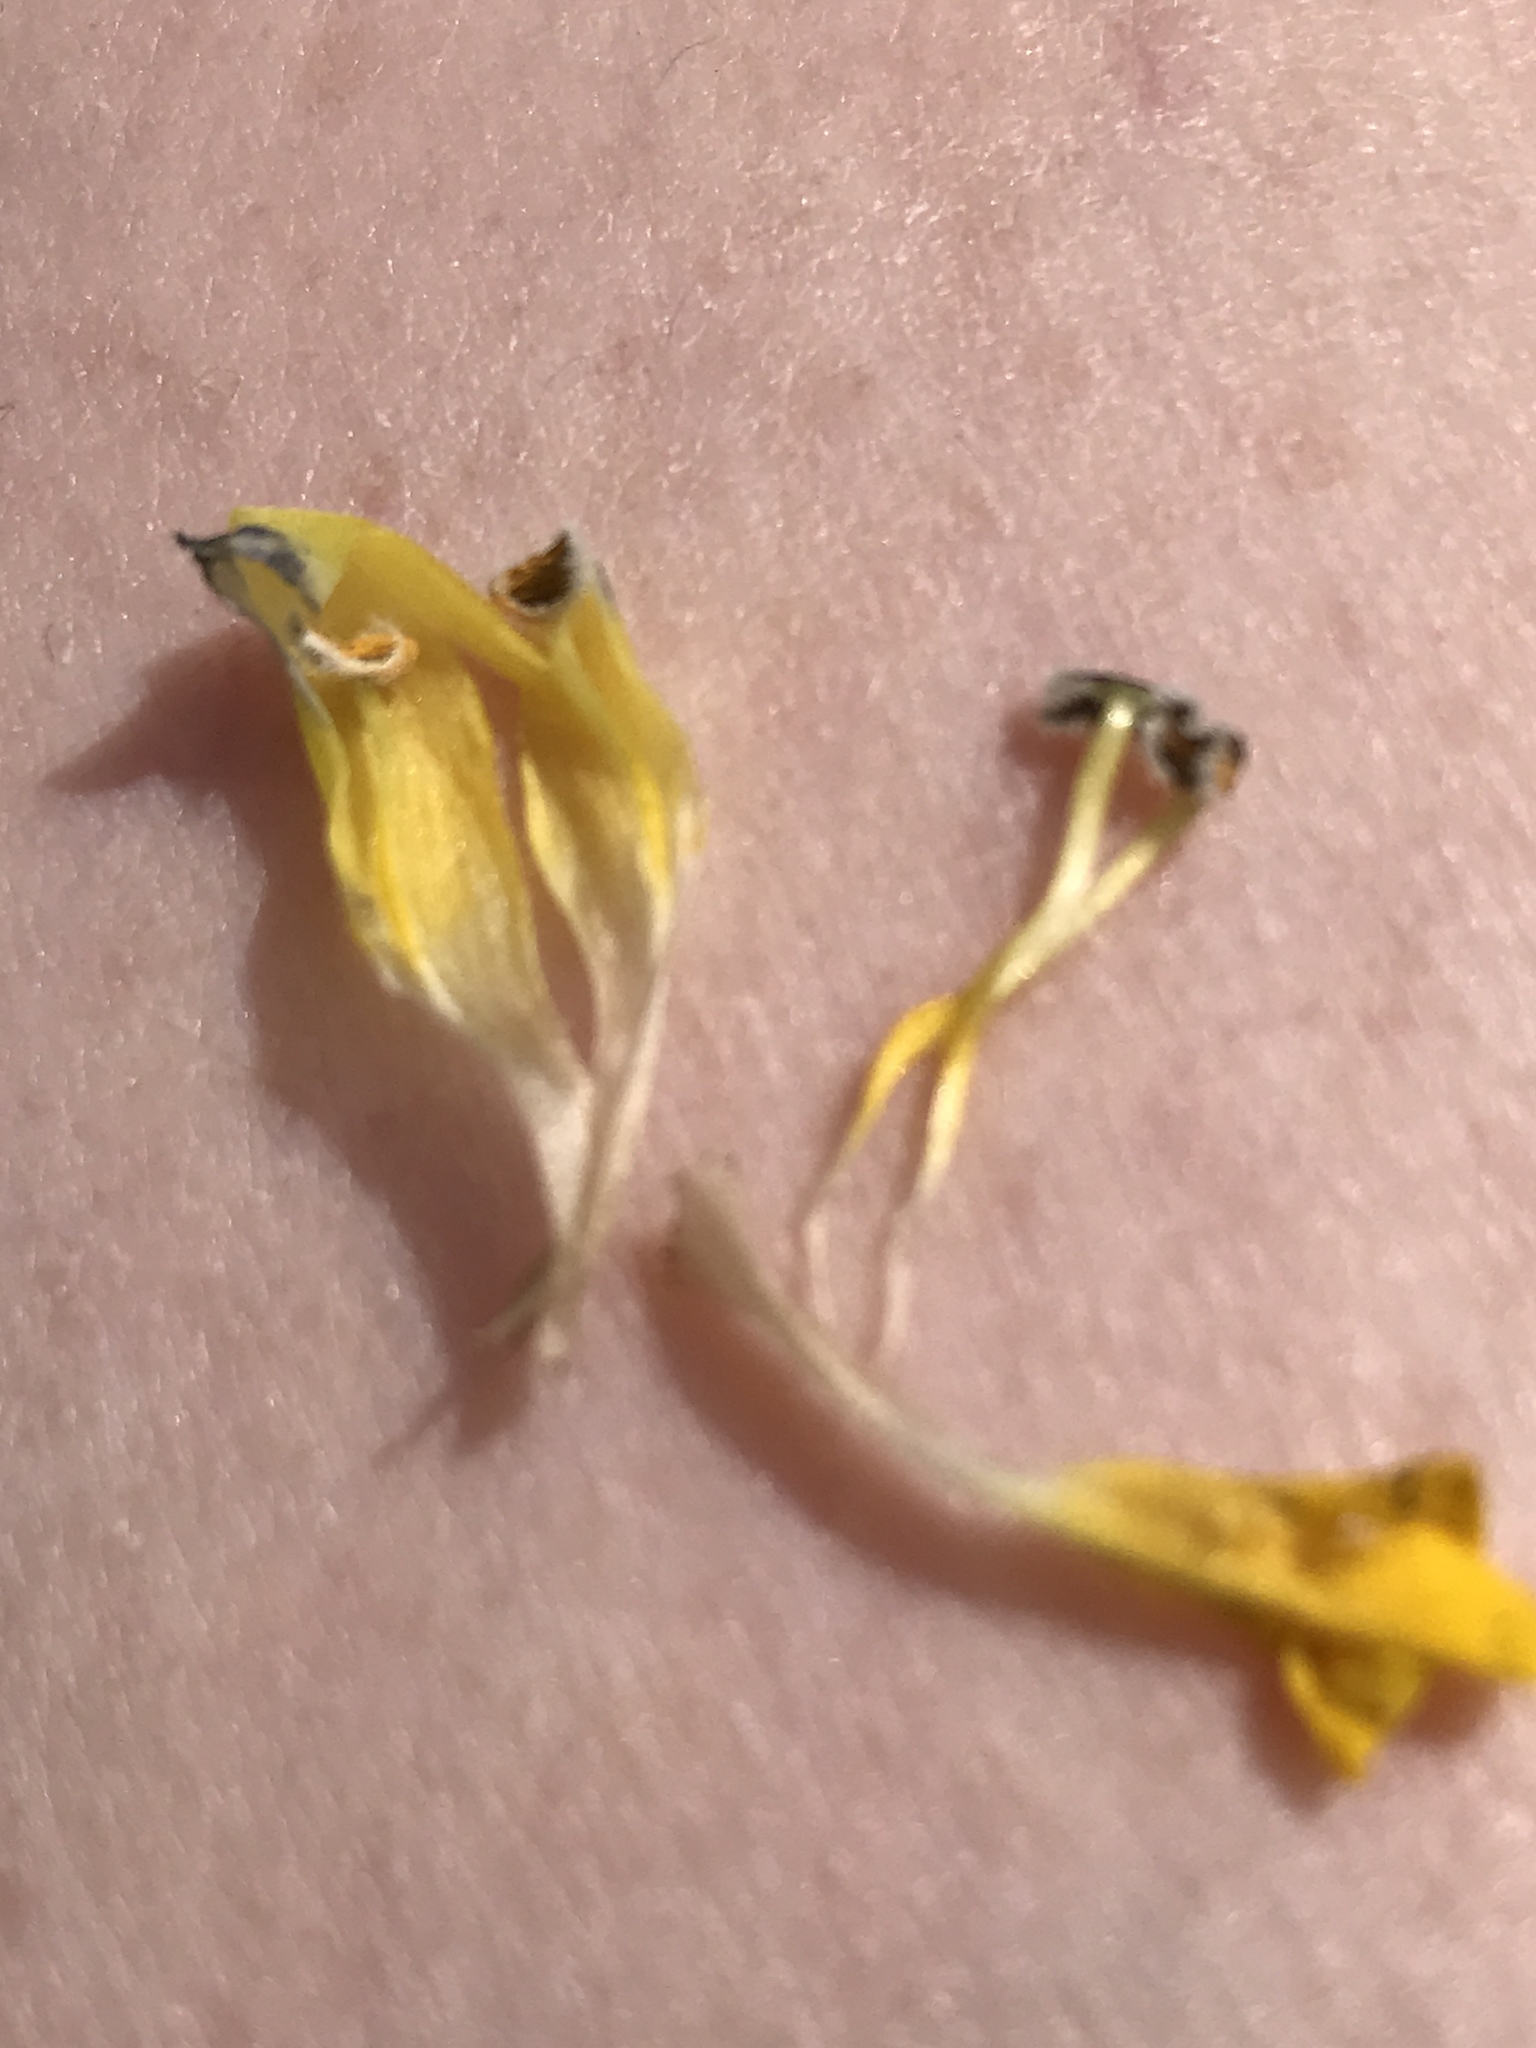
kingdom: Plantae
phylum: Tracheophyta
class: Magnoliopsida
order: Lamiales
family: Orobanchaceae
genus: Rhinanthus
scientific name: Rhinanthus alectorolophus
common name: Greater yellow-rattle
